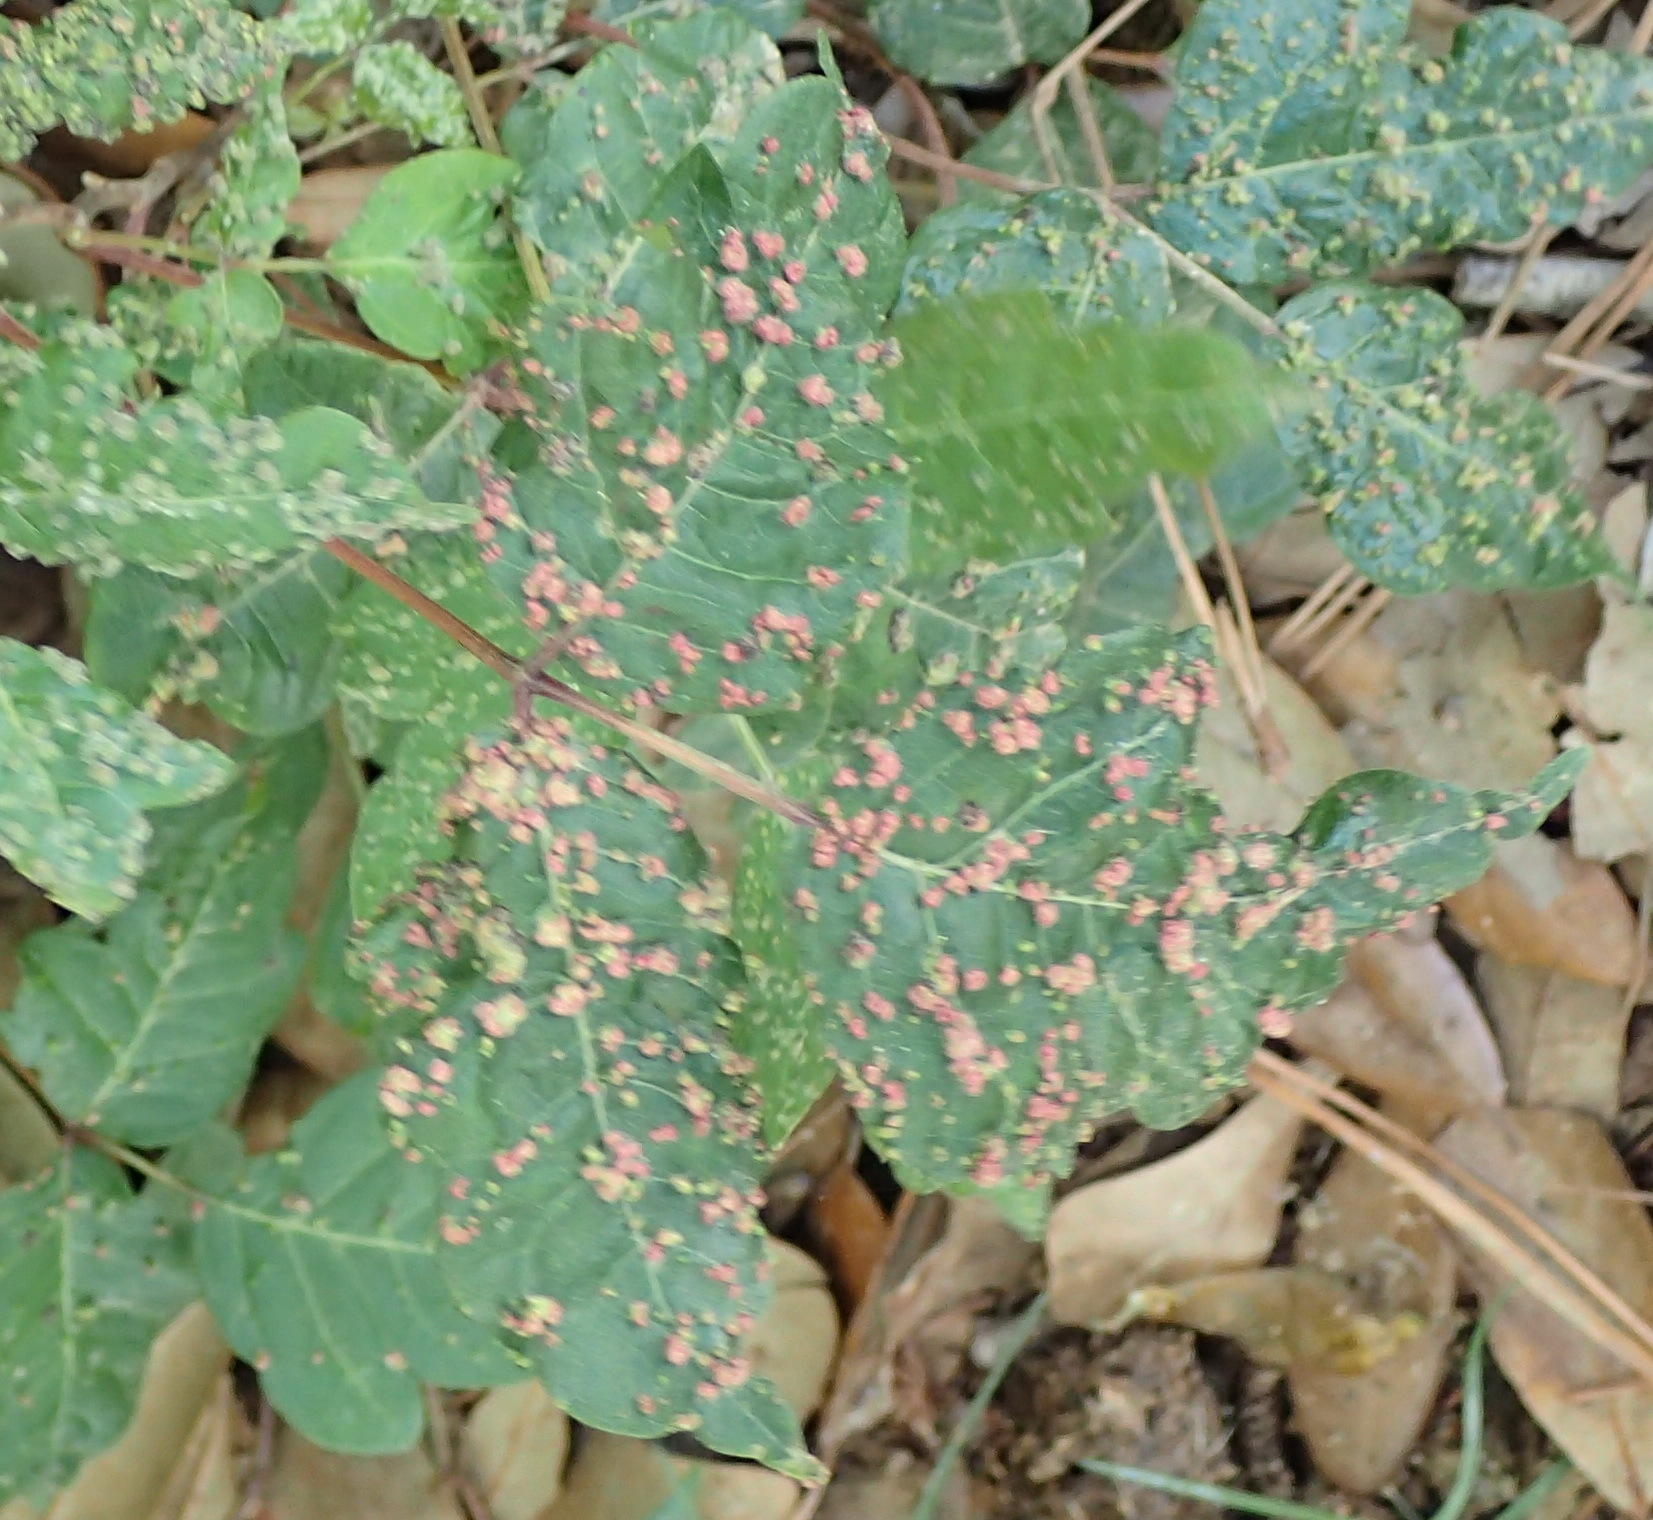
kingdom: Animalia
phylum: Arthropoda
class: Arachnida
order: Trombidiformes
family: Eriophyidae
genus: Aculops
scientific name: Aculops
